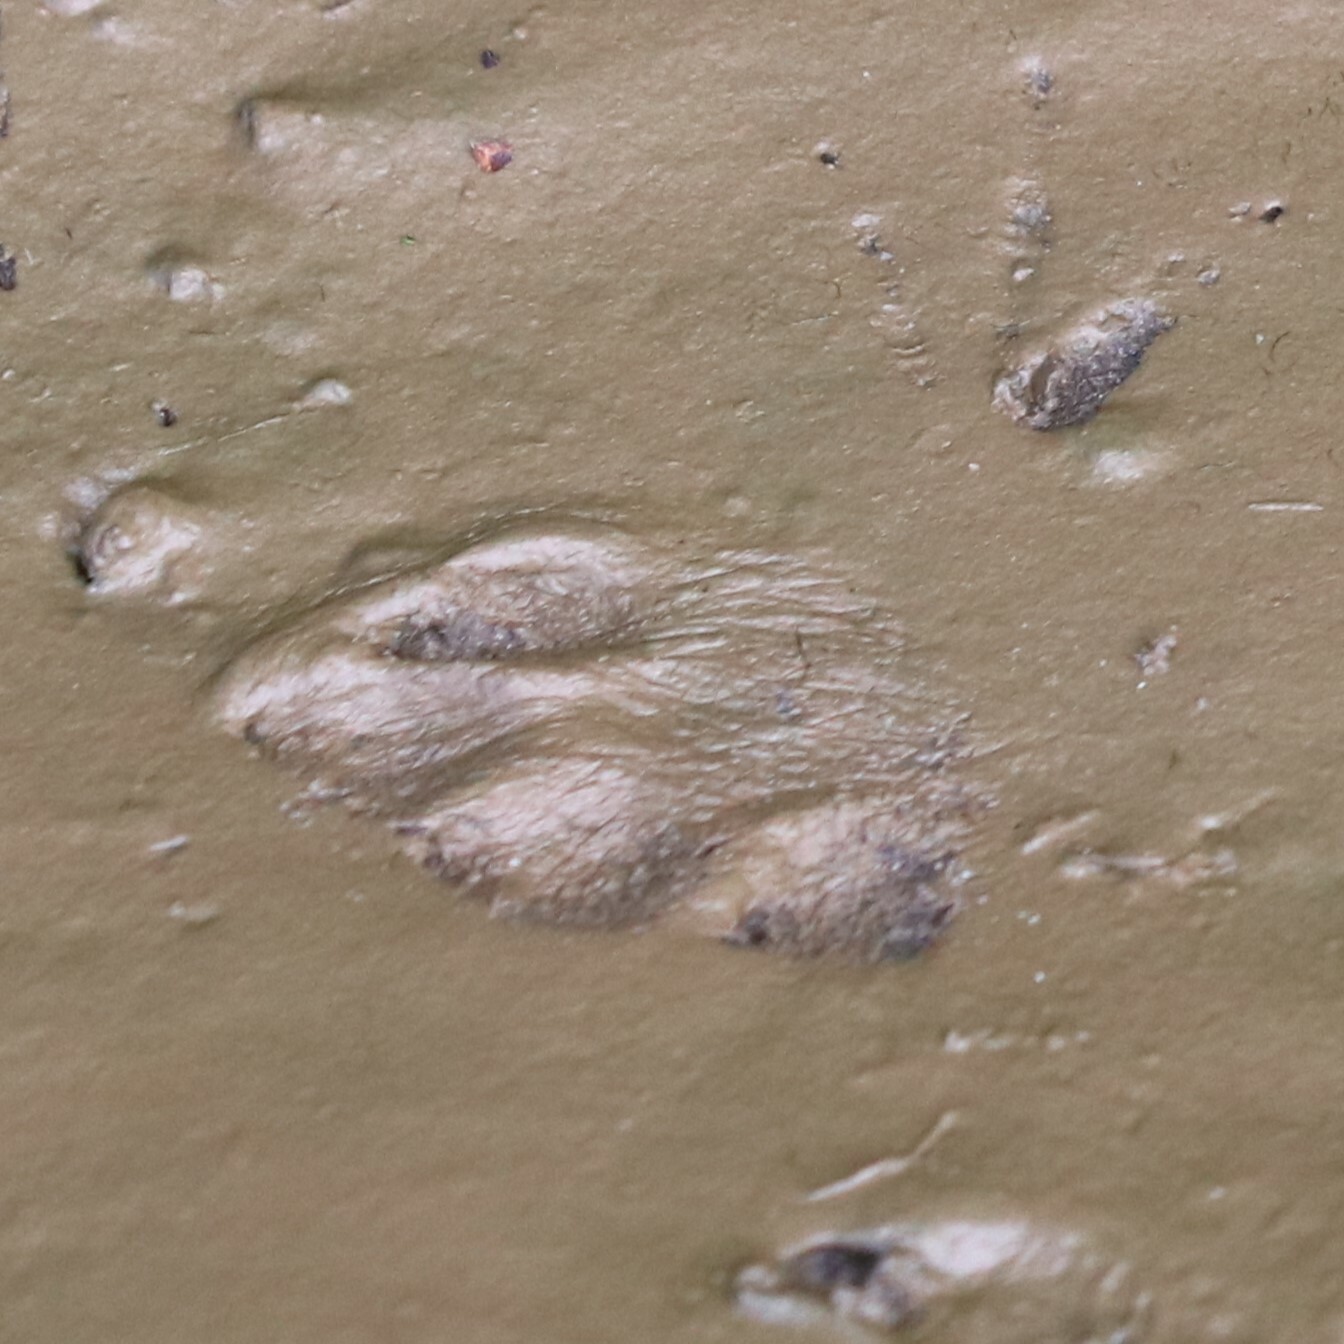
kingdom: Animalia
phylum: Chordata
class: Mammalia
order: Lagomorpha
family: Leporidae
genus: Sylvilagus
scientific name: Sylvilagus floridanus
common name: Eastern cottontail
